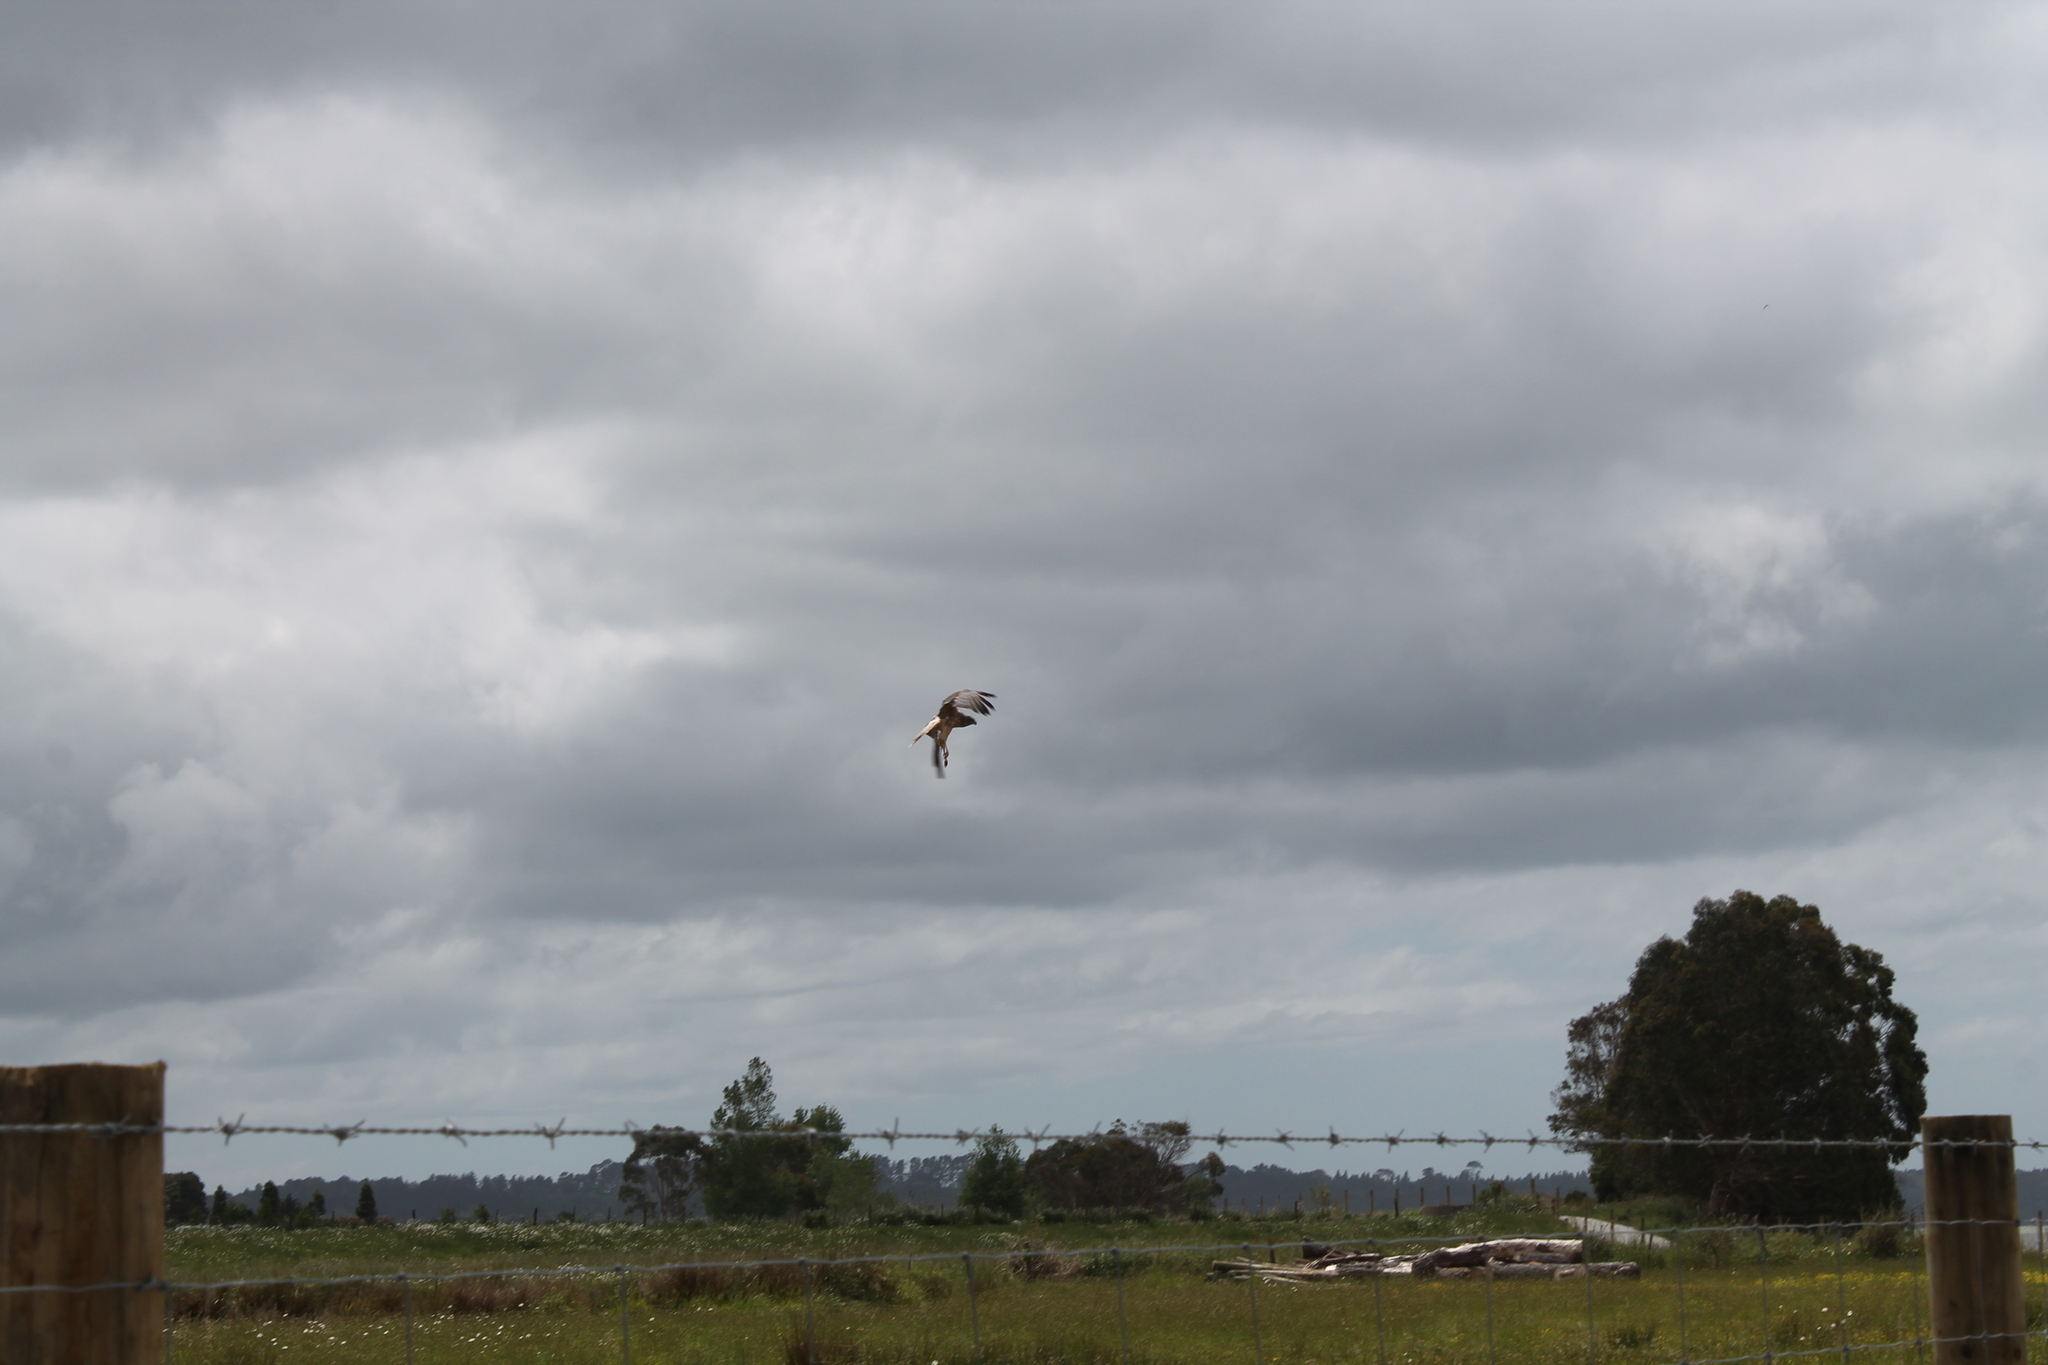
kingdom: Animalia
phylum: Chordata
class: Aves
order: Accipitriformes
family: Accipitridae
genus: Circus
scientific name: Circus approximans
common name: Swamp harrier
